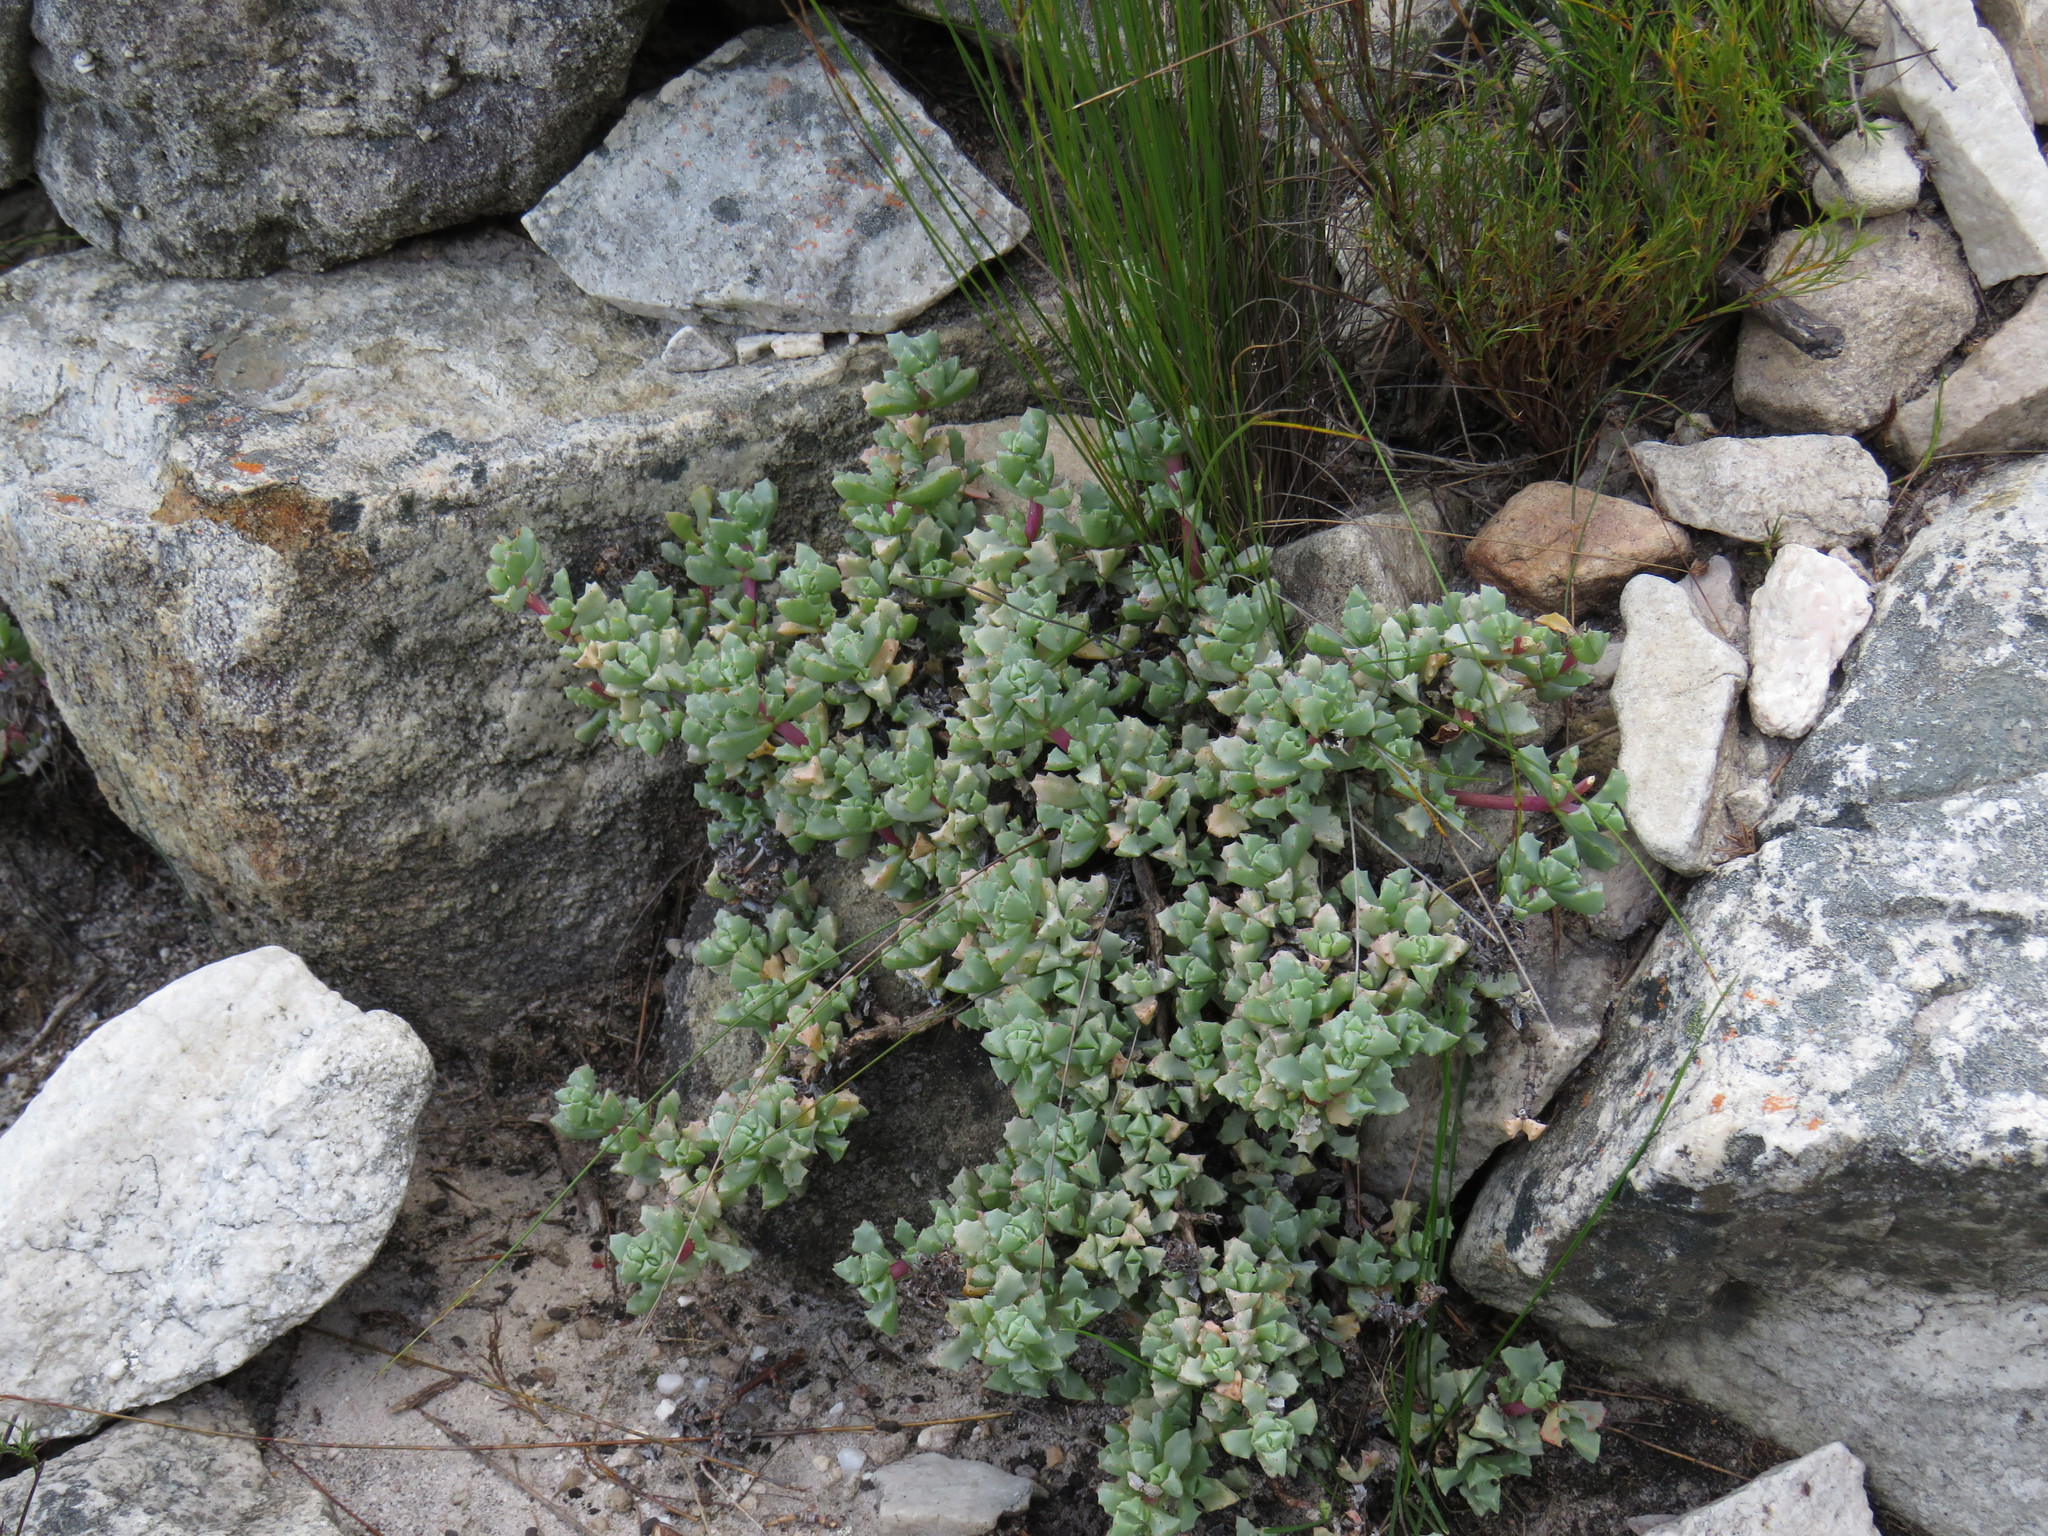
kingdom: Plantae
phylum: Tracheophyta
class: Magnoliopsida
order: Caryophyllales
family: Aizoaceae
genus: Oscularia
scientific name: Oscularia deltoides
